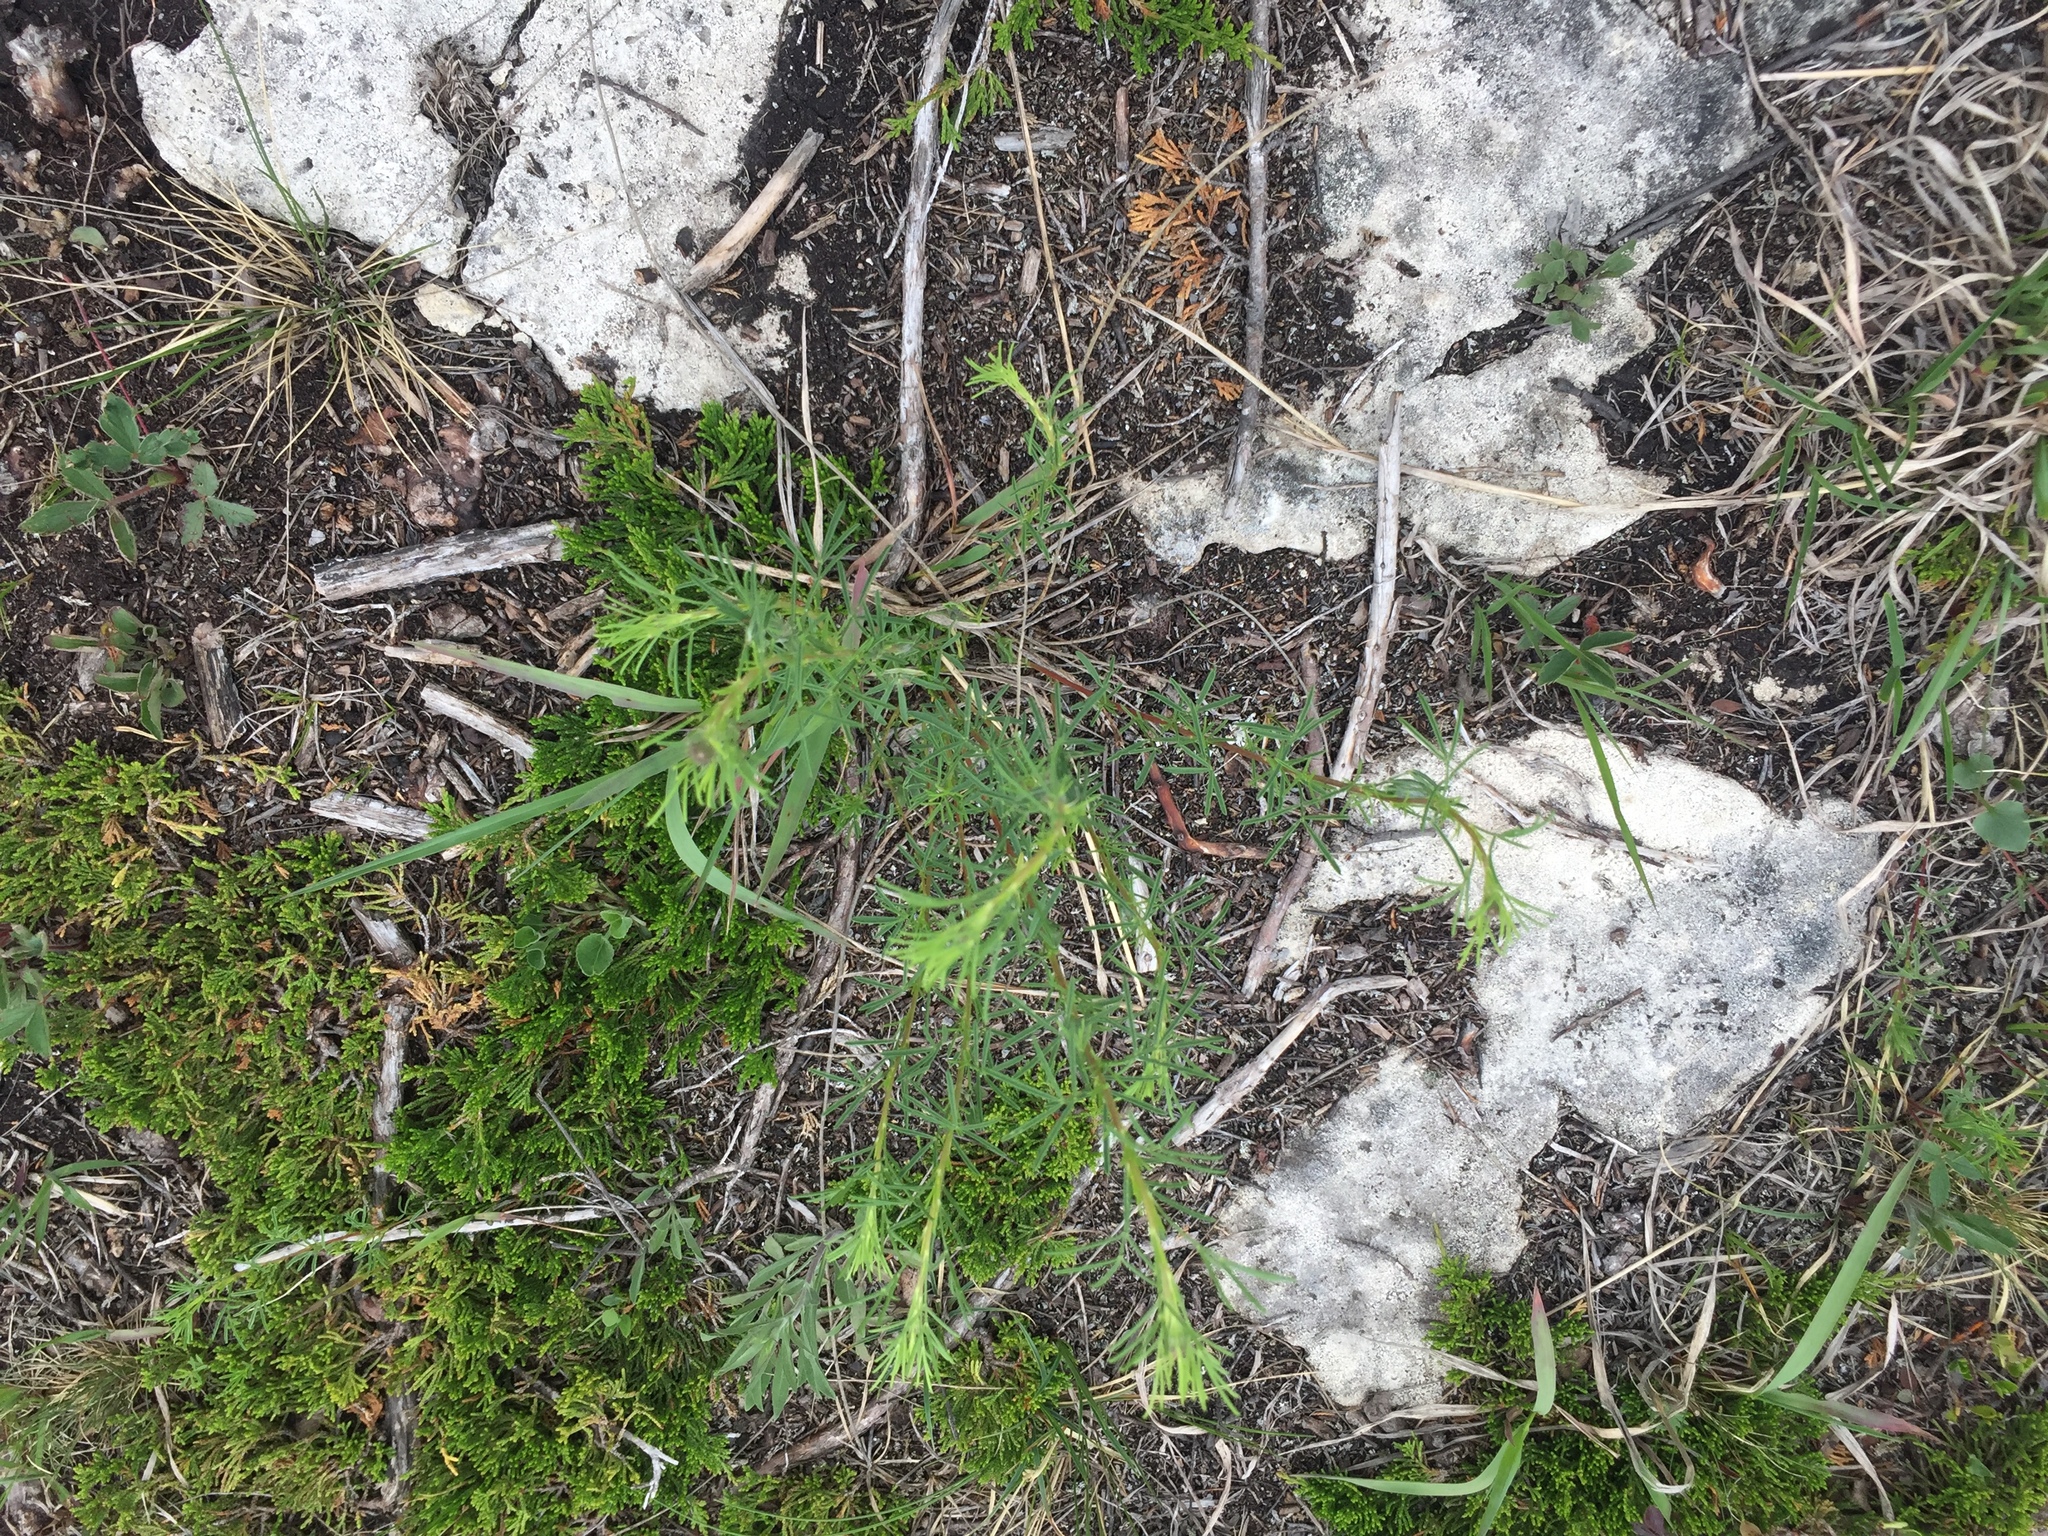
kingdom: Plantae
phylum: Tracheophyta
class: Magnoliopsida
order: Fabales
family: Fabaceae
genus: Dalea
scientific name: Dalea purpurea
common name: Purple prairie-clover
